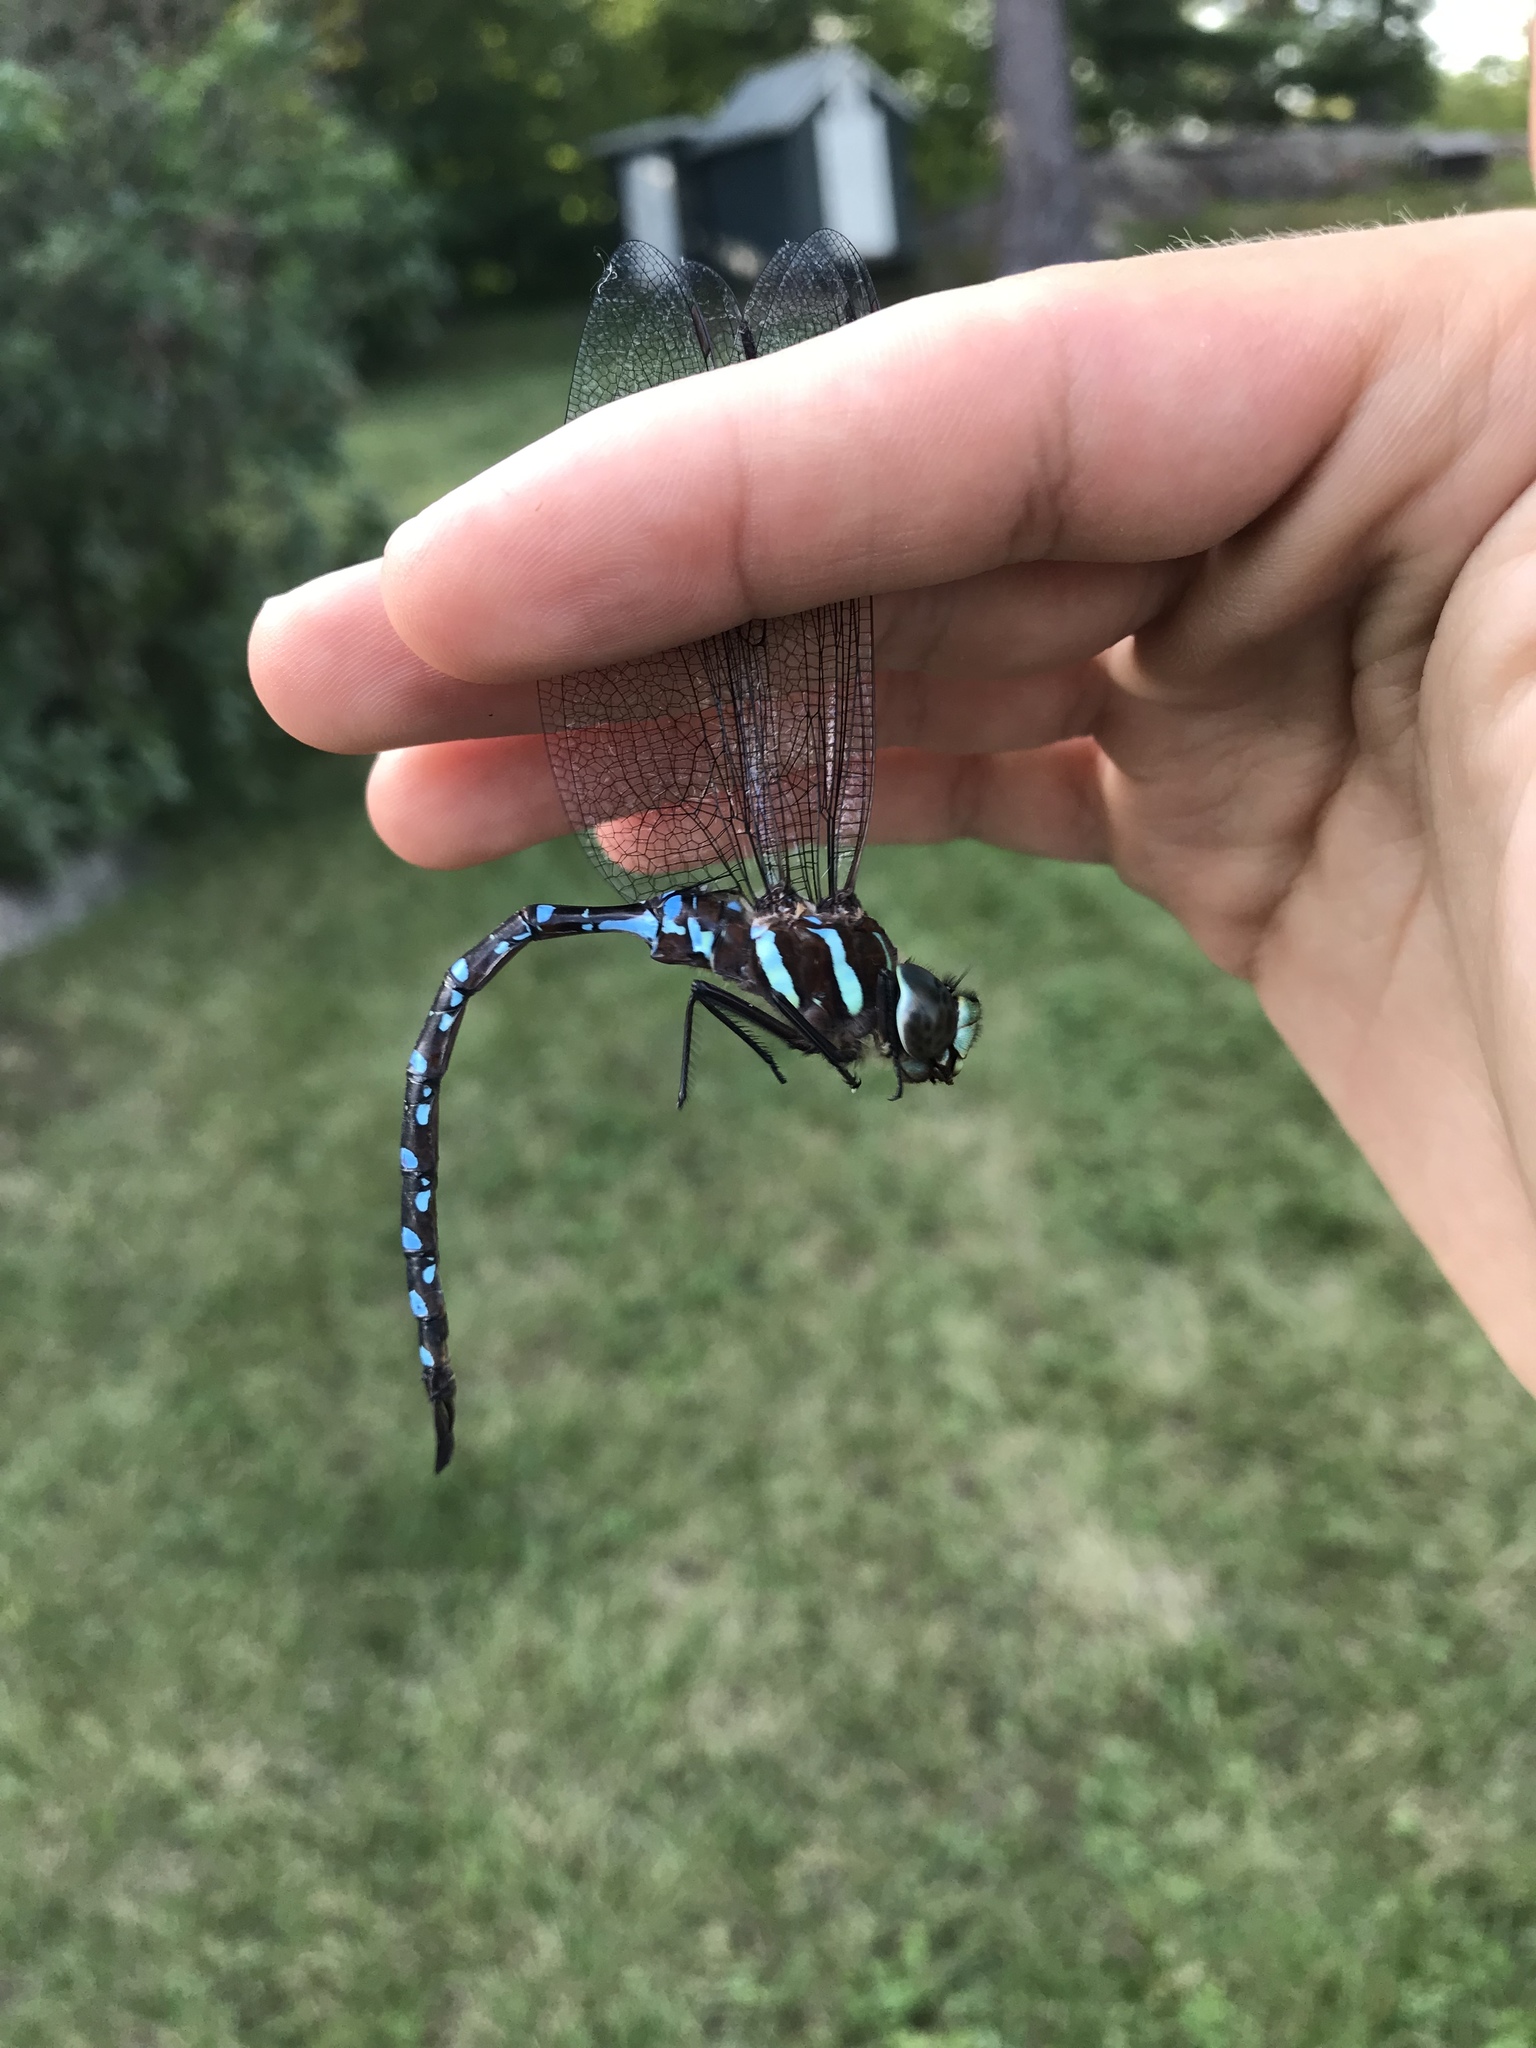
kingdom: Animalia
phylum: Arthropoda
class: Insecta
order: Odonata
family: Aeshnidae
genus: Aeshna
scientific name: Aeshna tuberculifera
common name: Aeschne à tubercules
